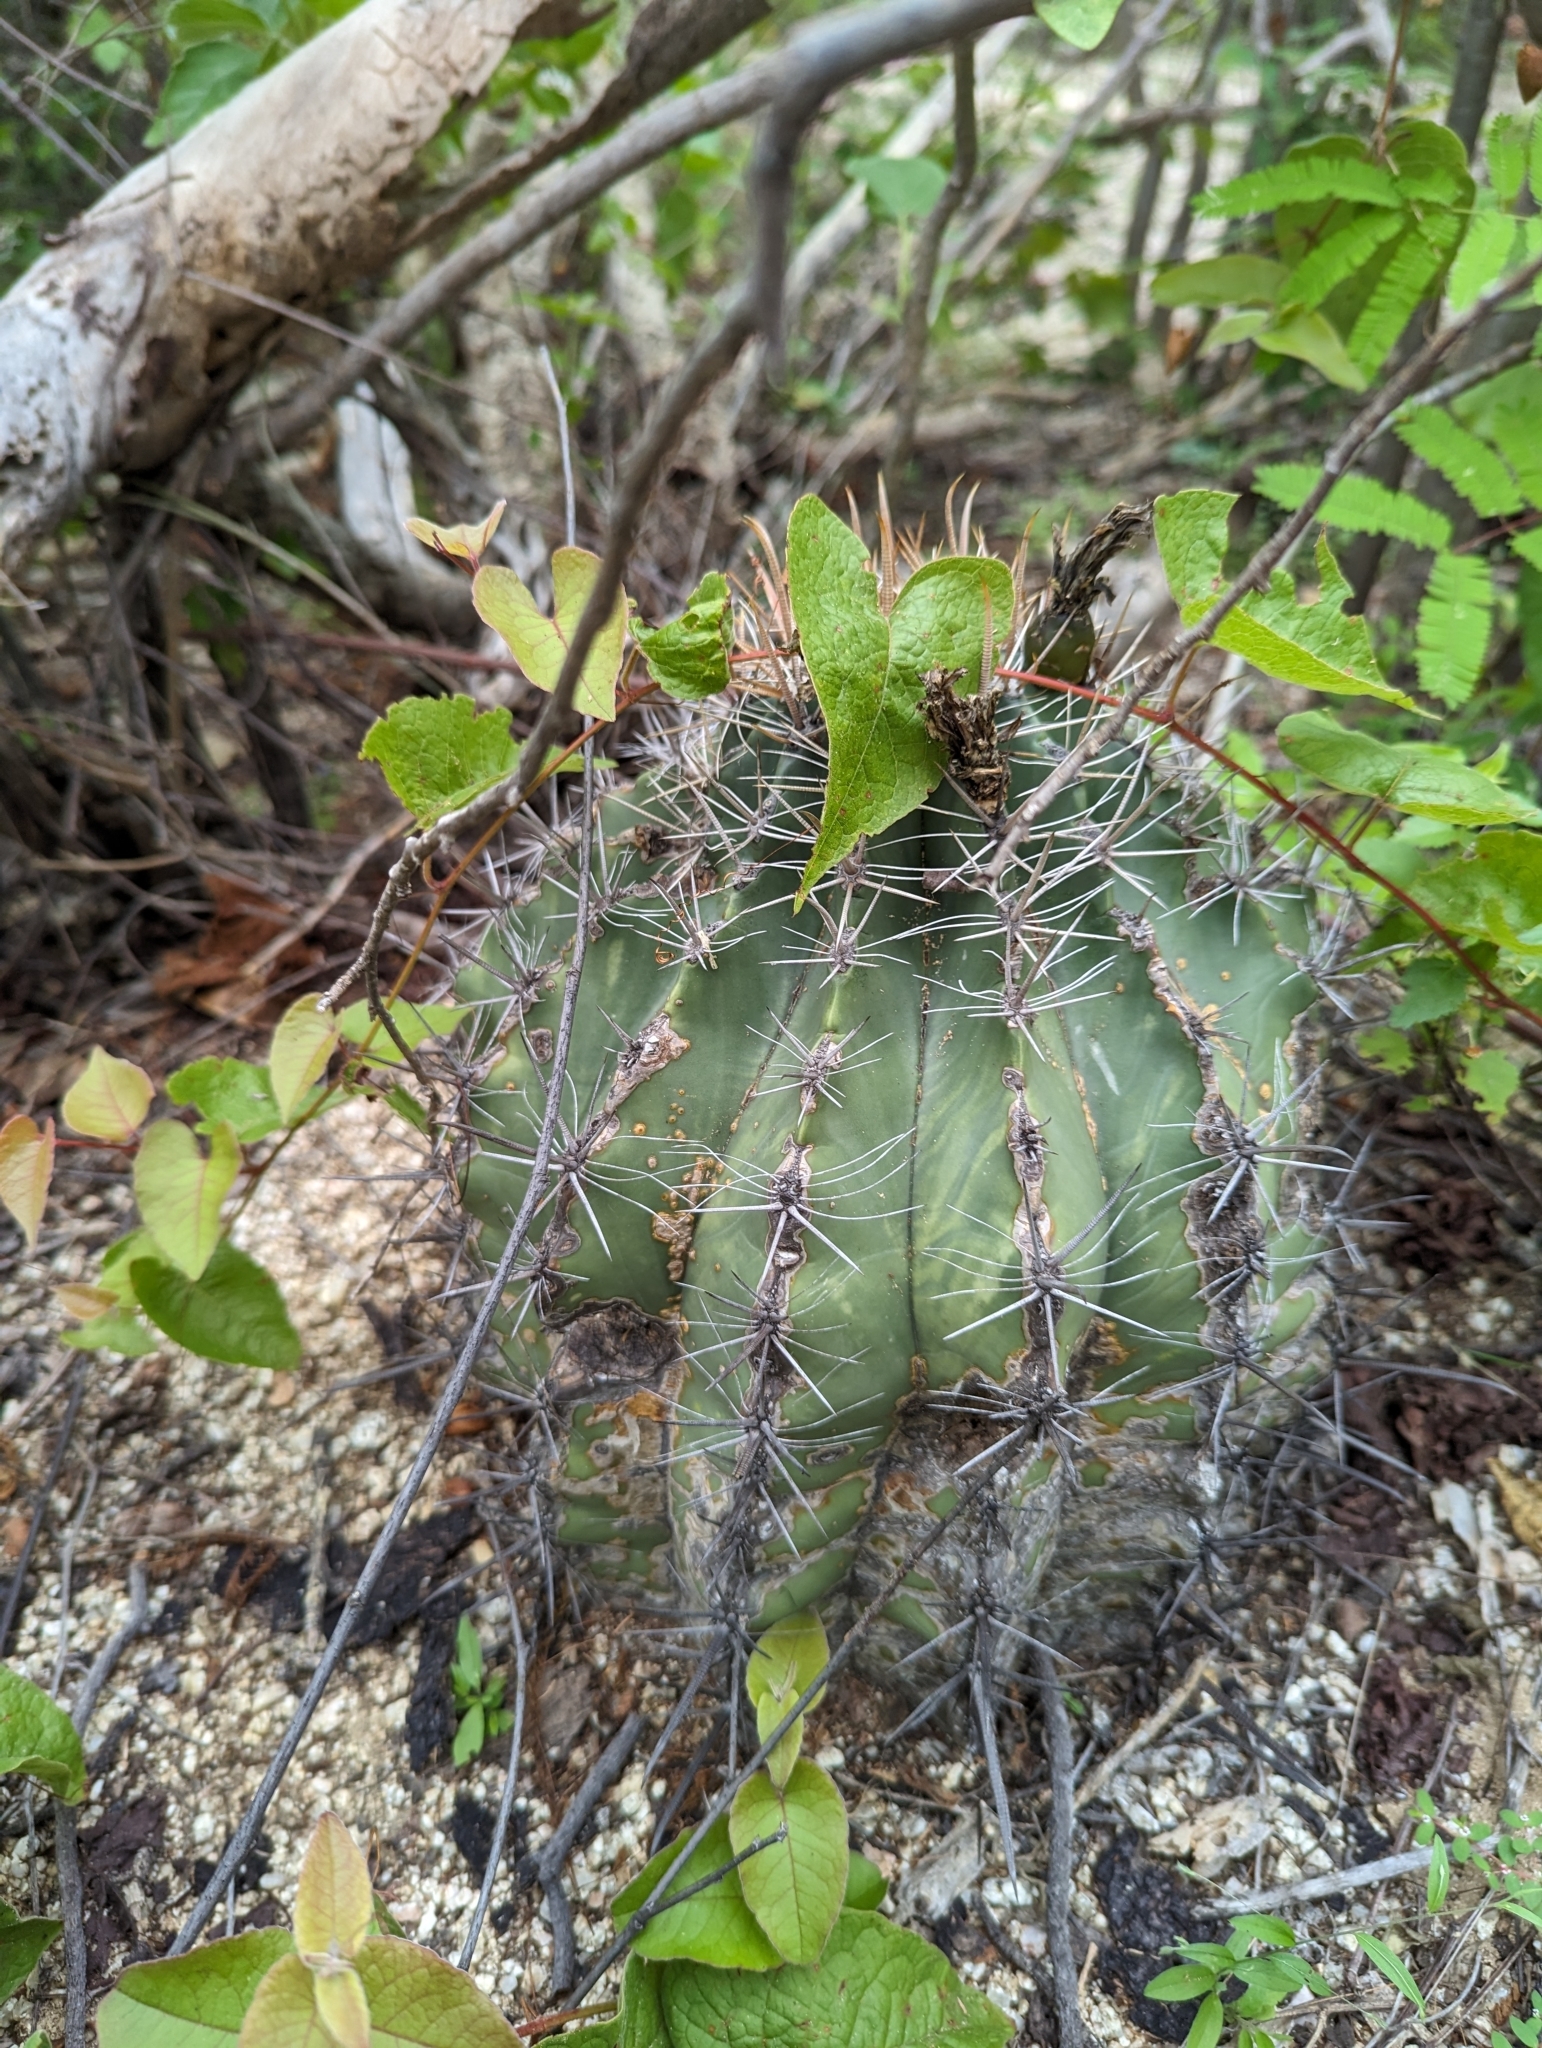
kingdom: Plantae
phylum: Tracheophyta
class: Magnoliopsida
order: Caryophyllales
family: Cactaceae
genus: Ferocactus
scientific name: Ferocactus townsendianus
